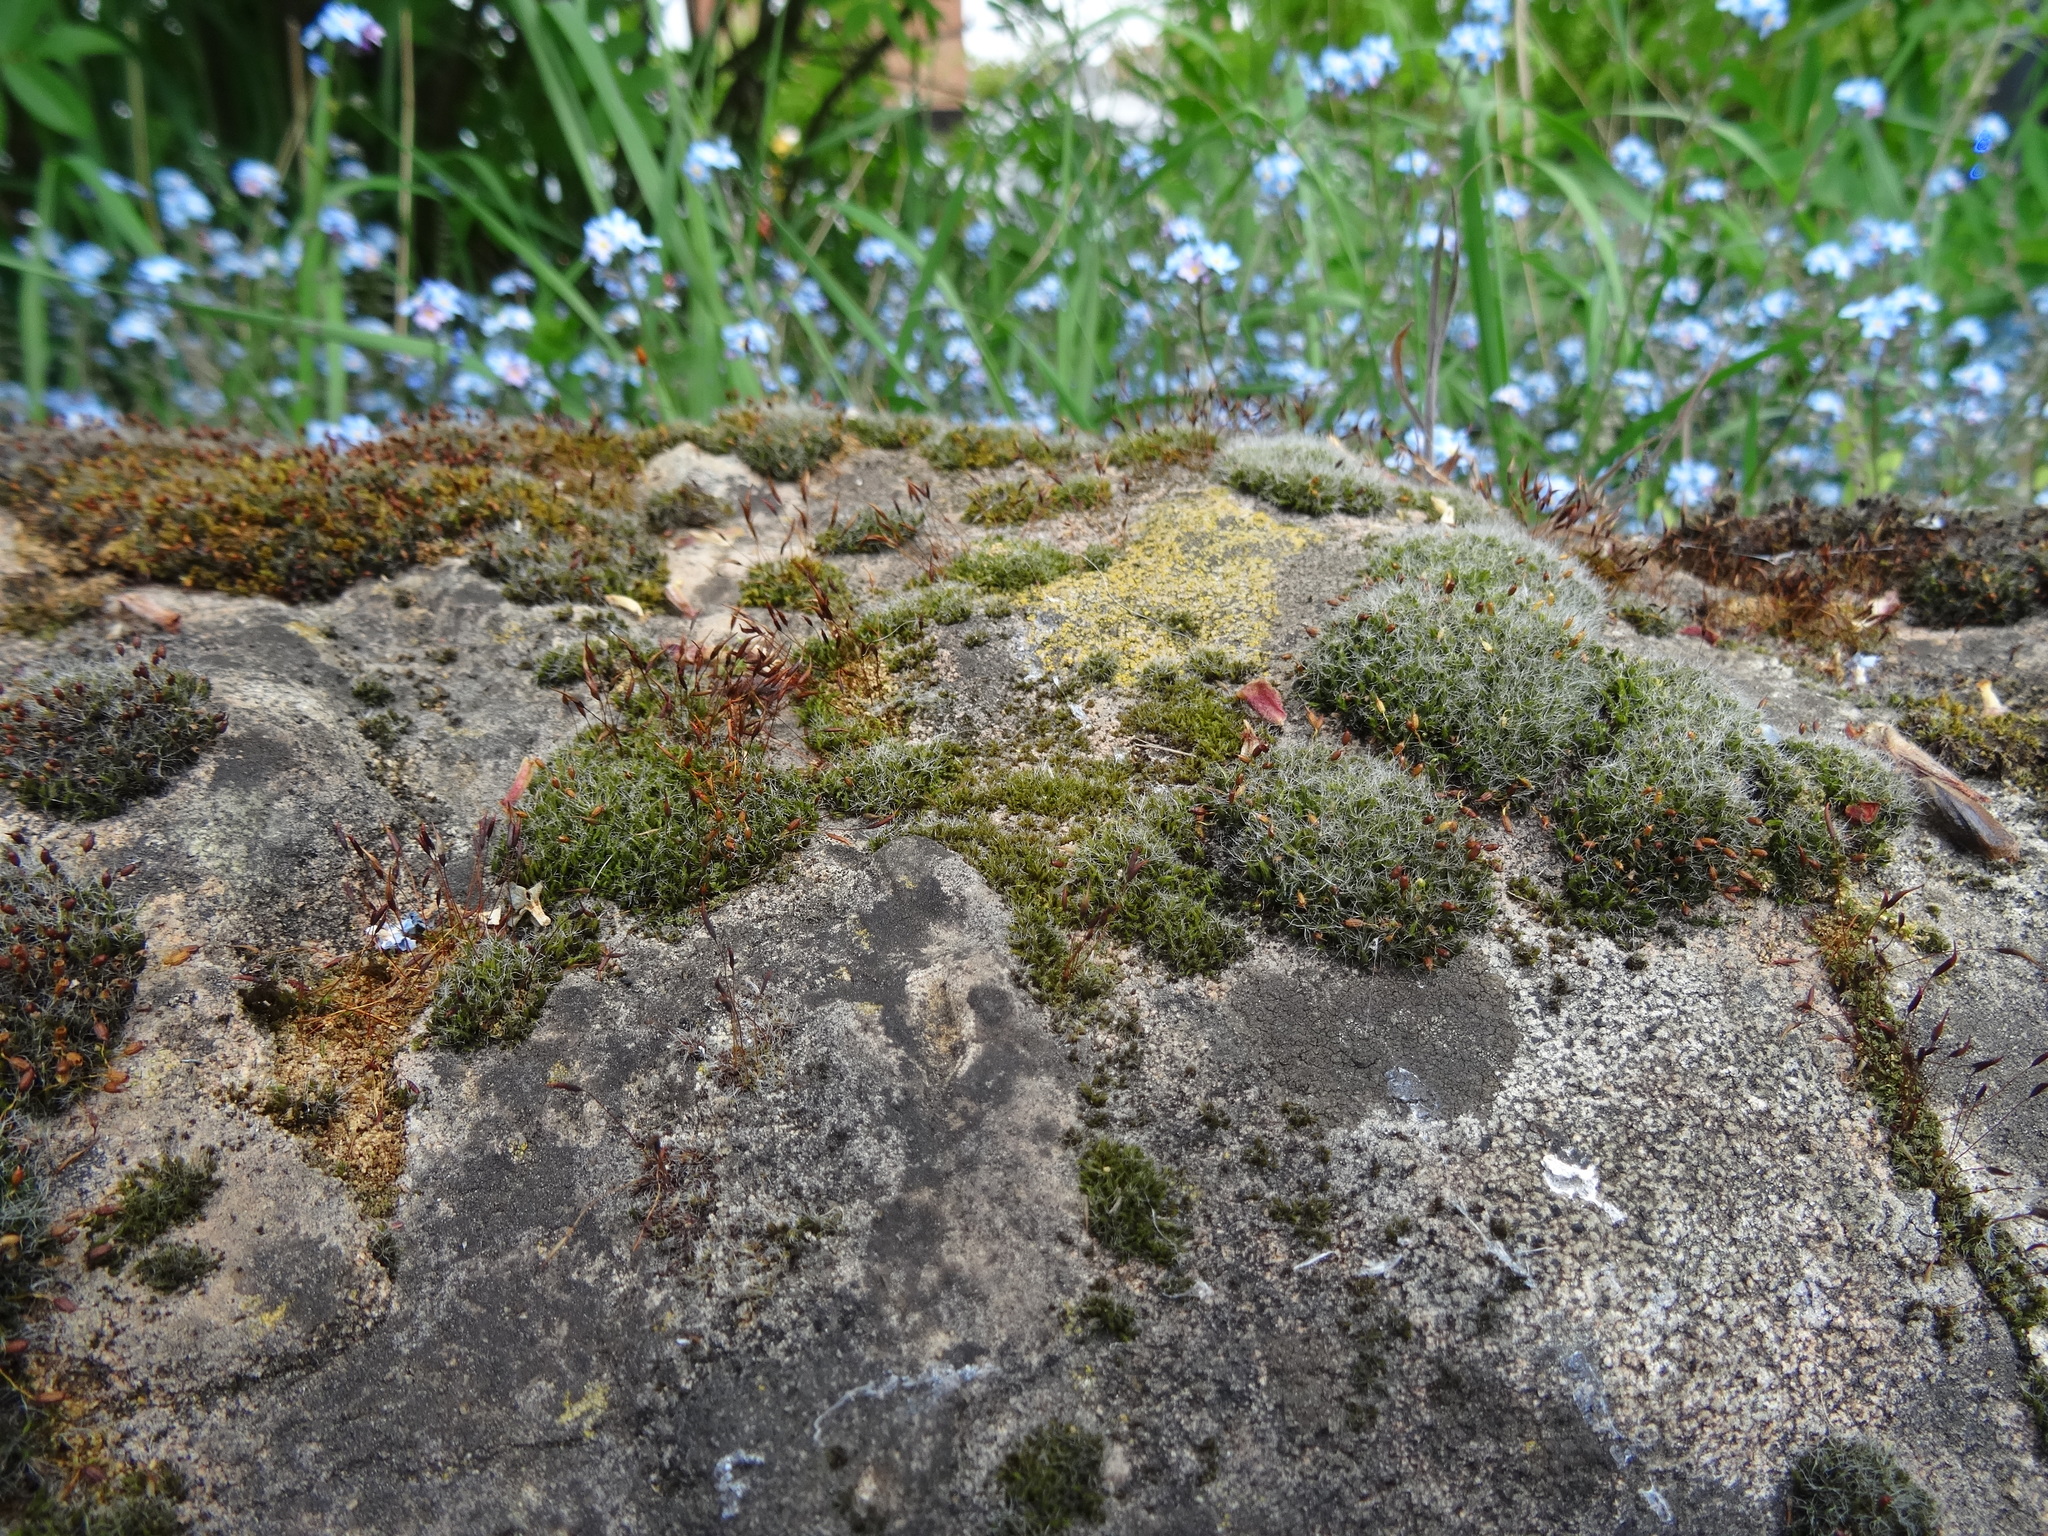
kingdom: Plantae
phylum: Bryophyta
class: Bryopsida
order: Grimmiales
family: Grimmiaceae
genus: Grimmia
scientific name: Grimmia pulvinata
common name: Grey-cushioned grimmia
